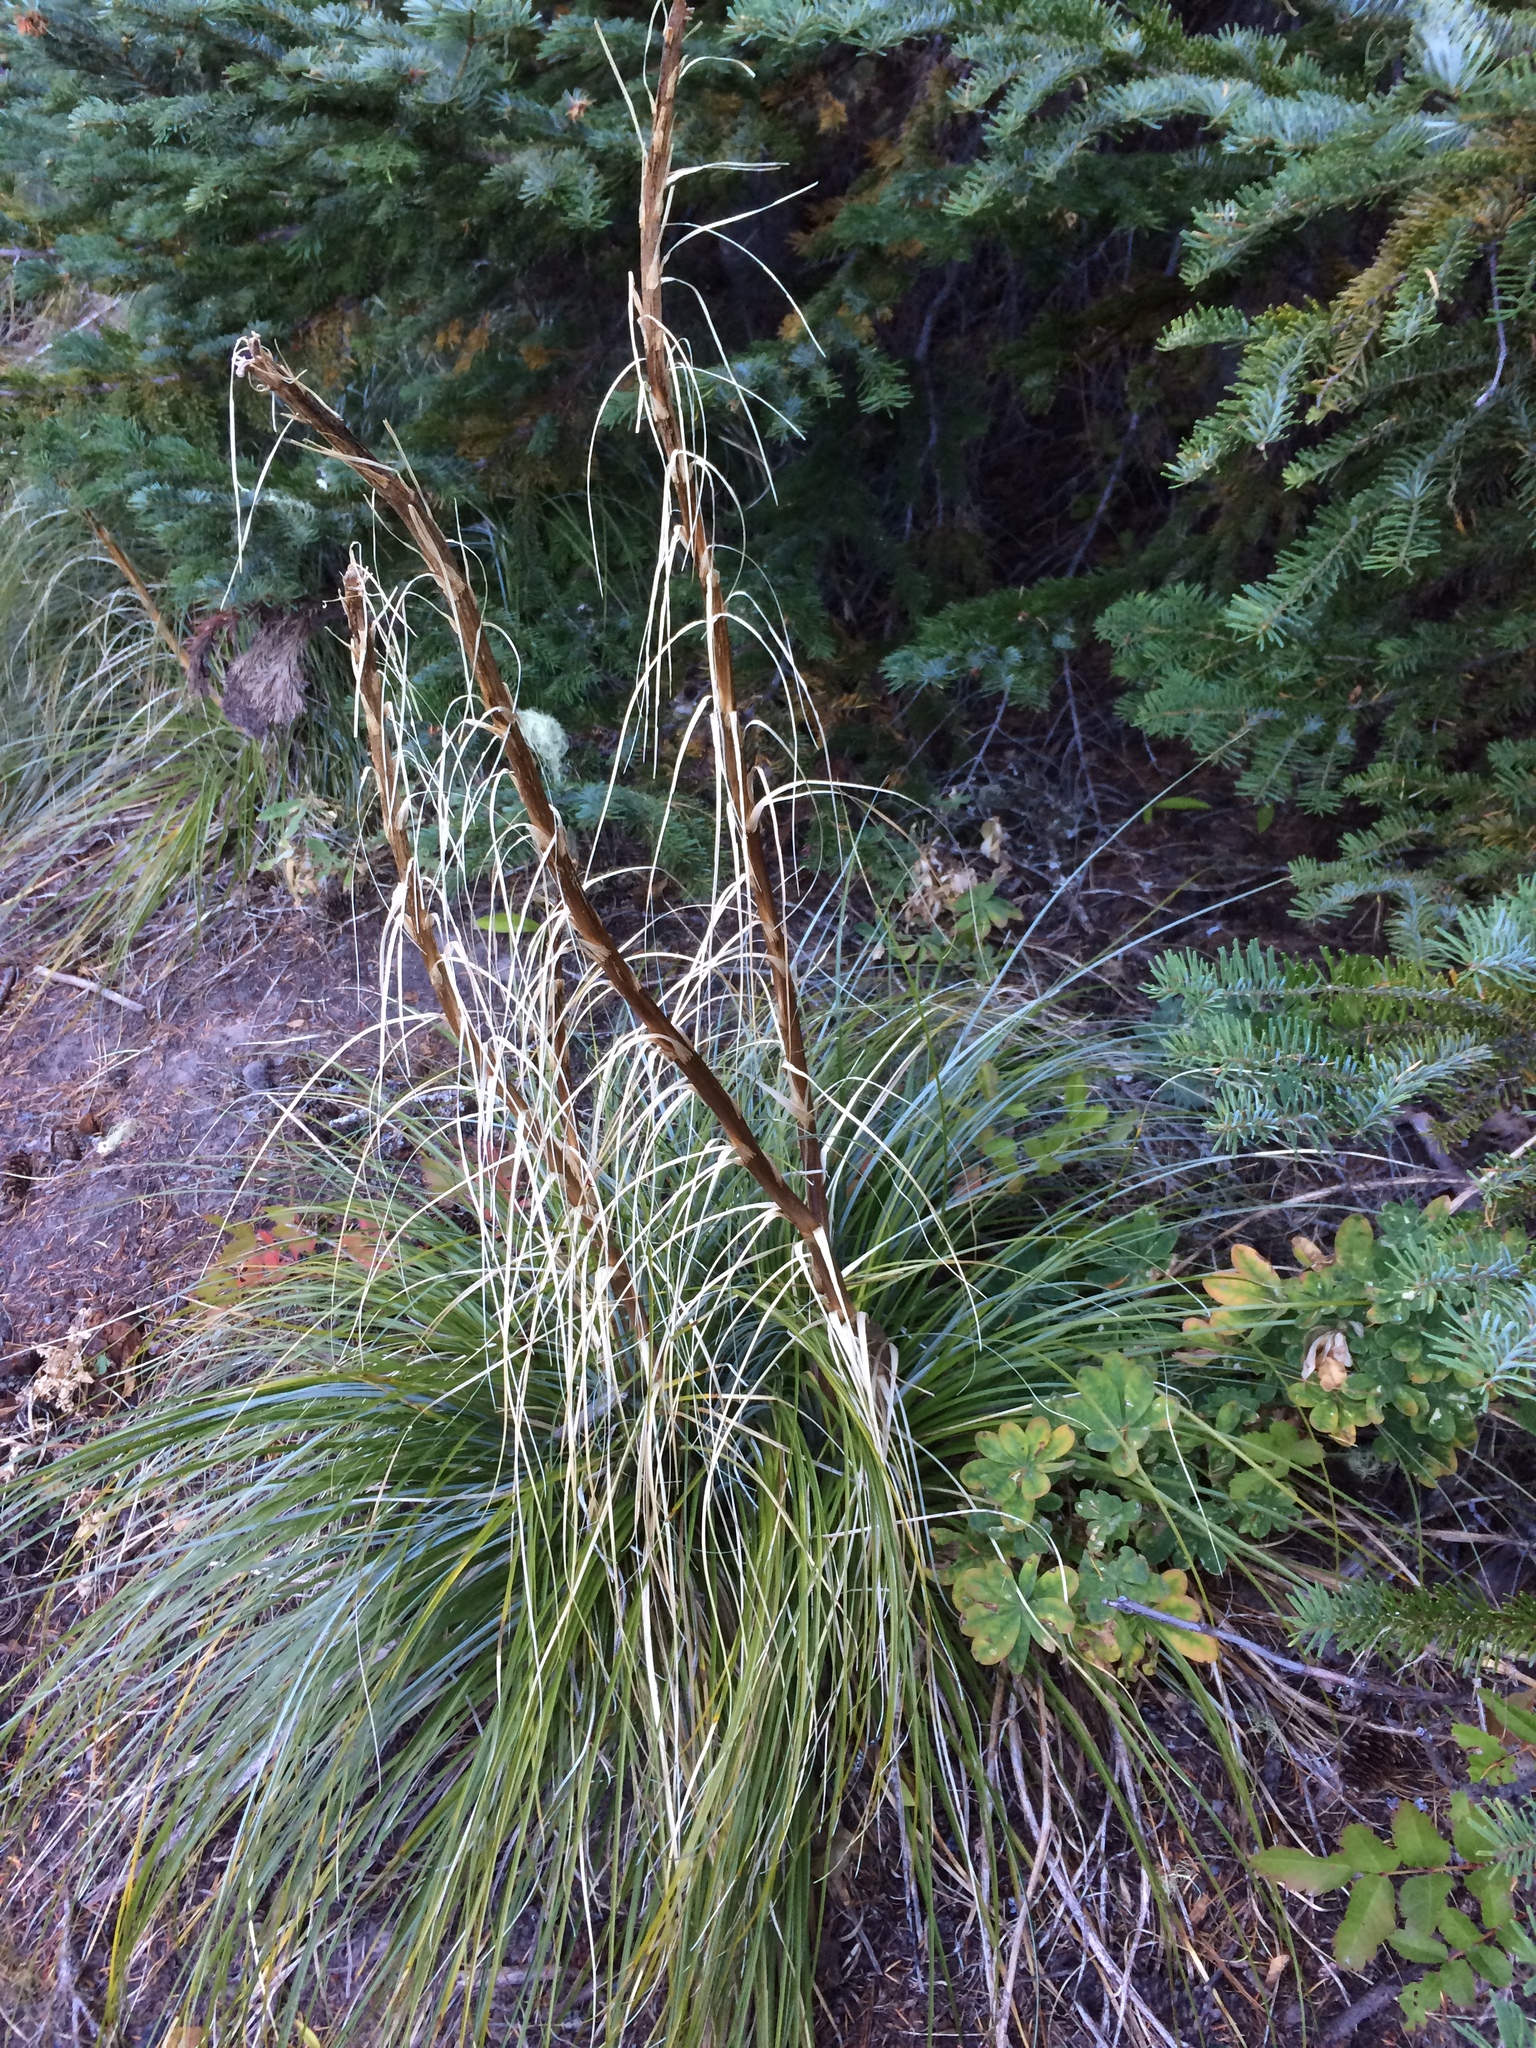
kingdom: Plantae
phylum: Tracheophyta
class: Liliopsida
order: Liliales
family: Melanthiaceae
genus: Xerophyllum
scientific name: Xerophyllum tenax
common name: Bear-grass
